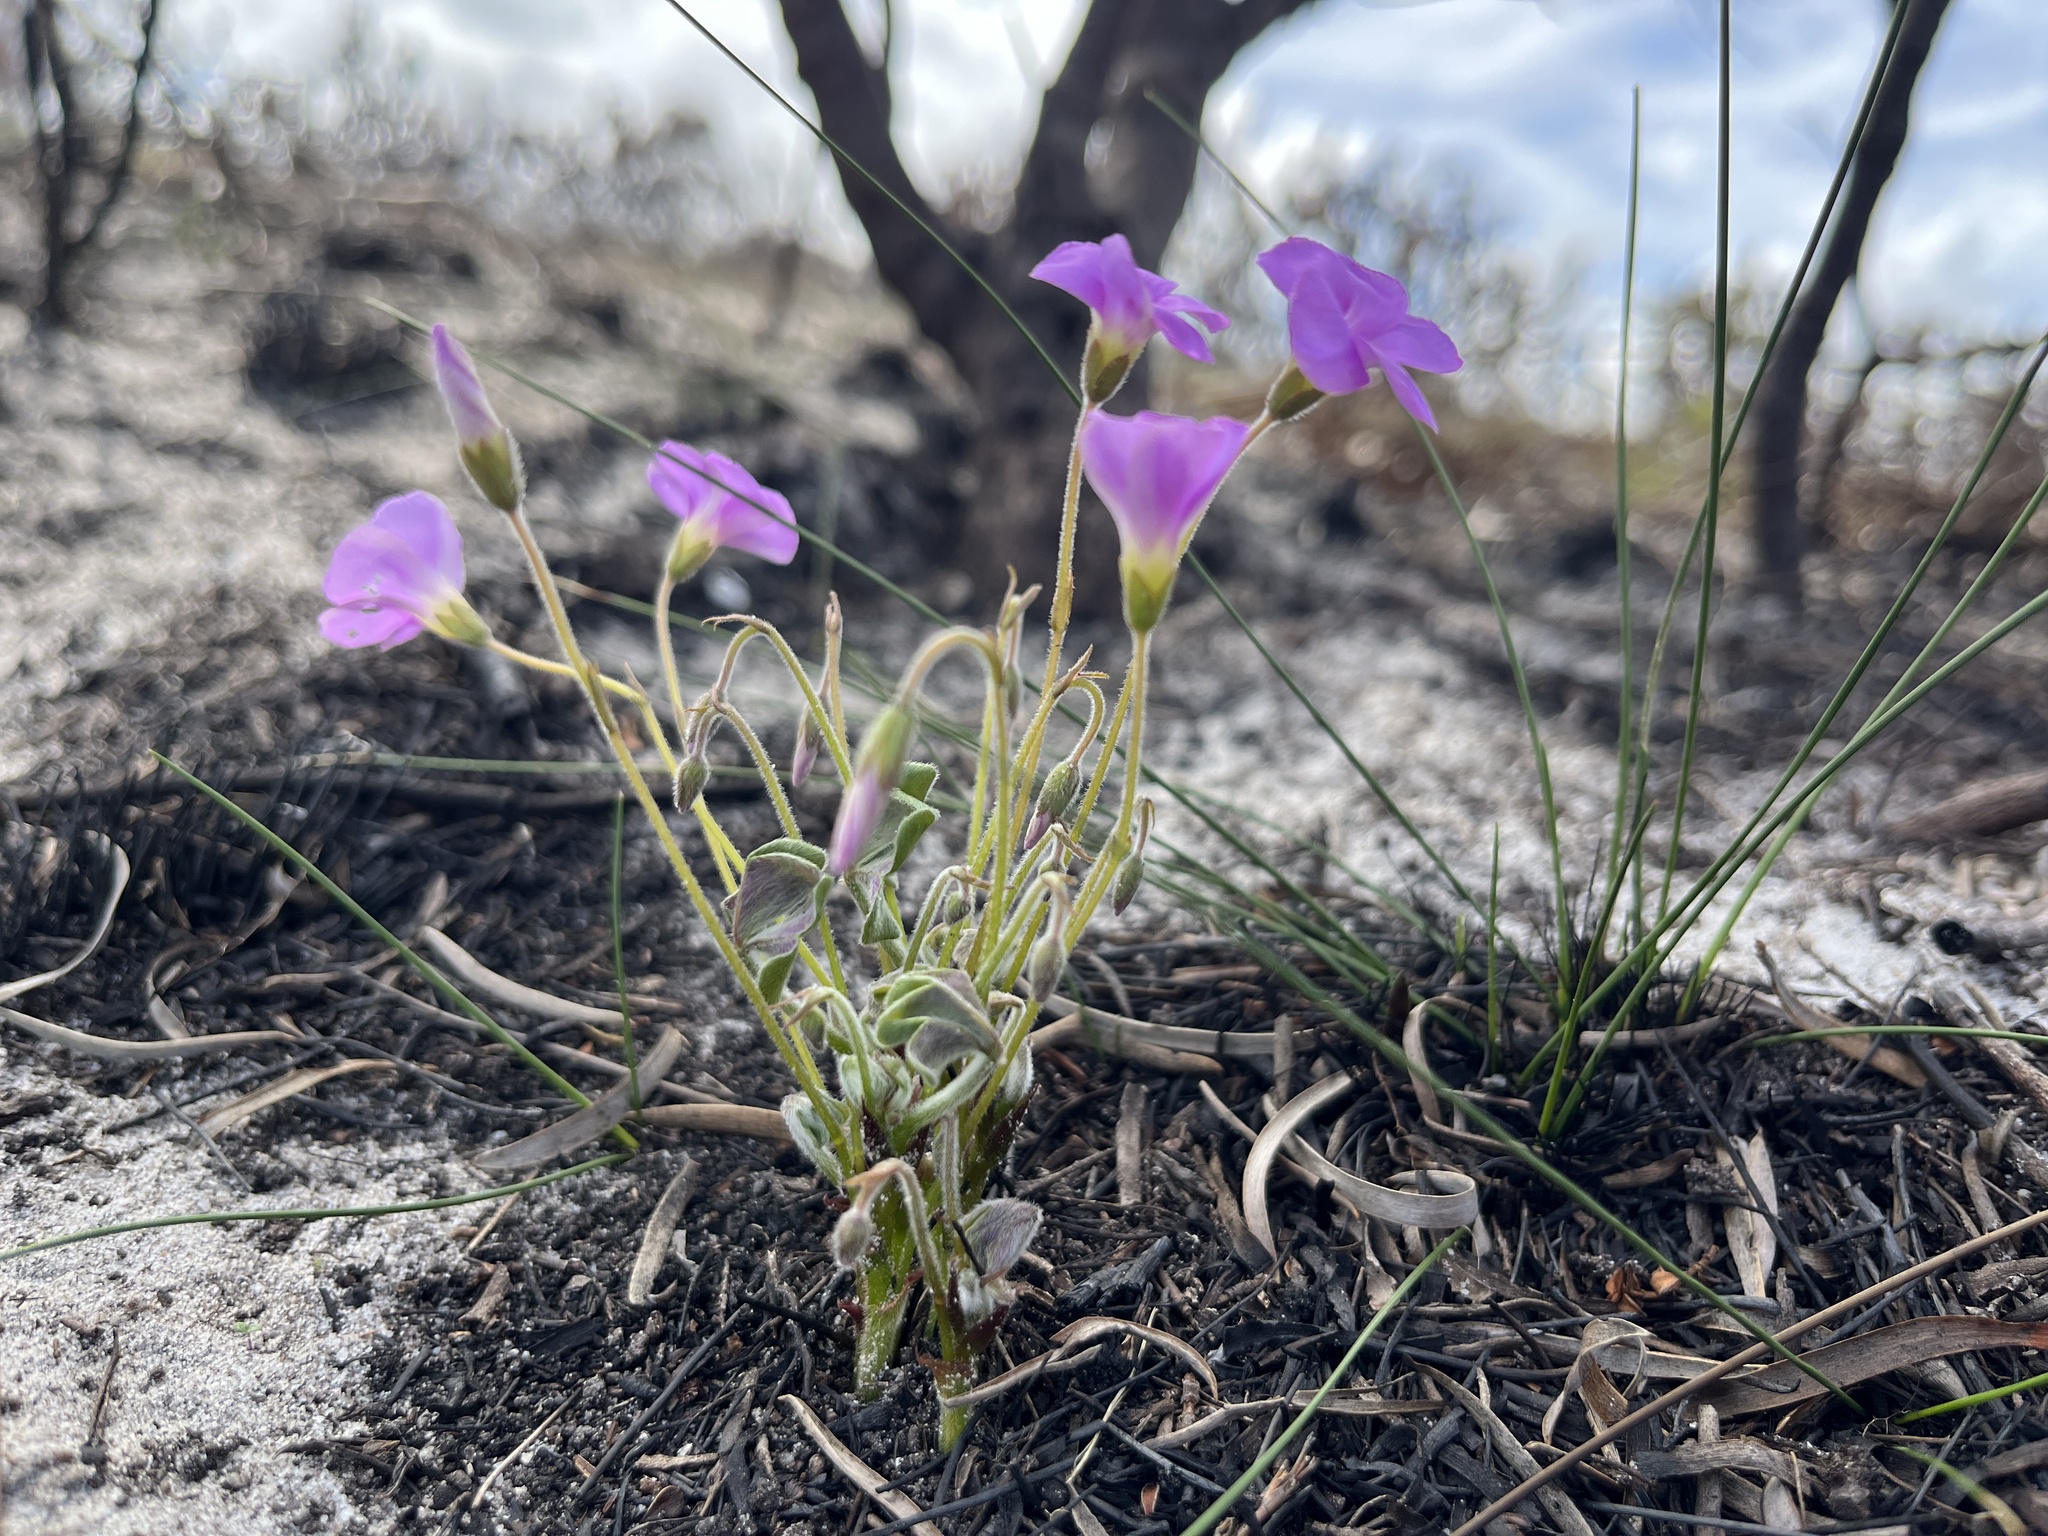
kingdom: Plantae
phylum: Tracheophyta
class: Magnoliopsida
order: Oxalidales
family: Oxalidaceae
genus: Oxalis
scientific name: Oxalis truncatula
